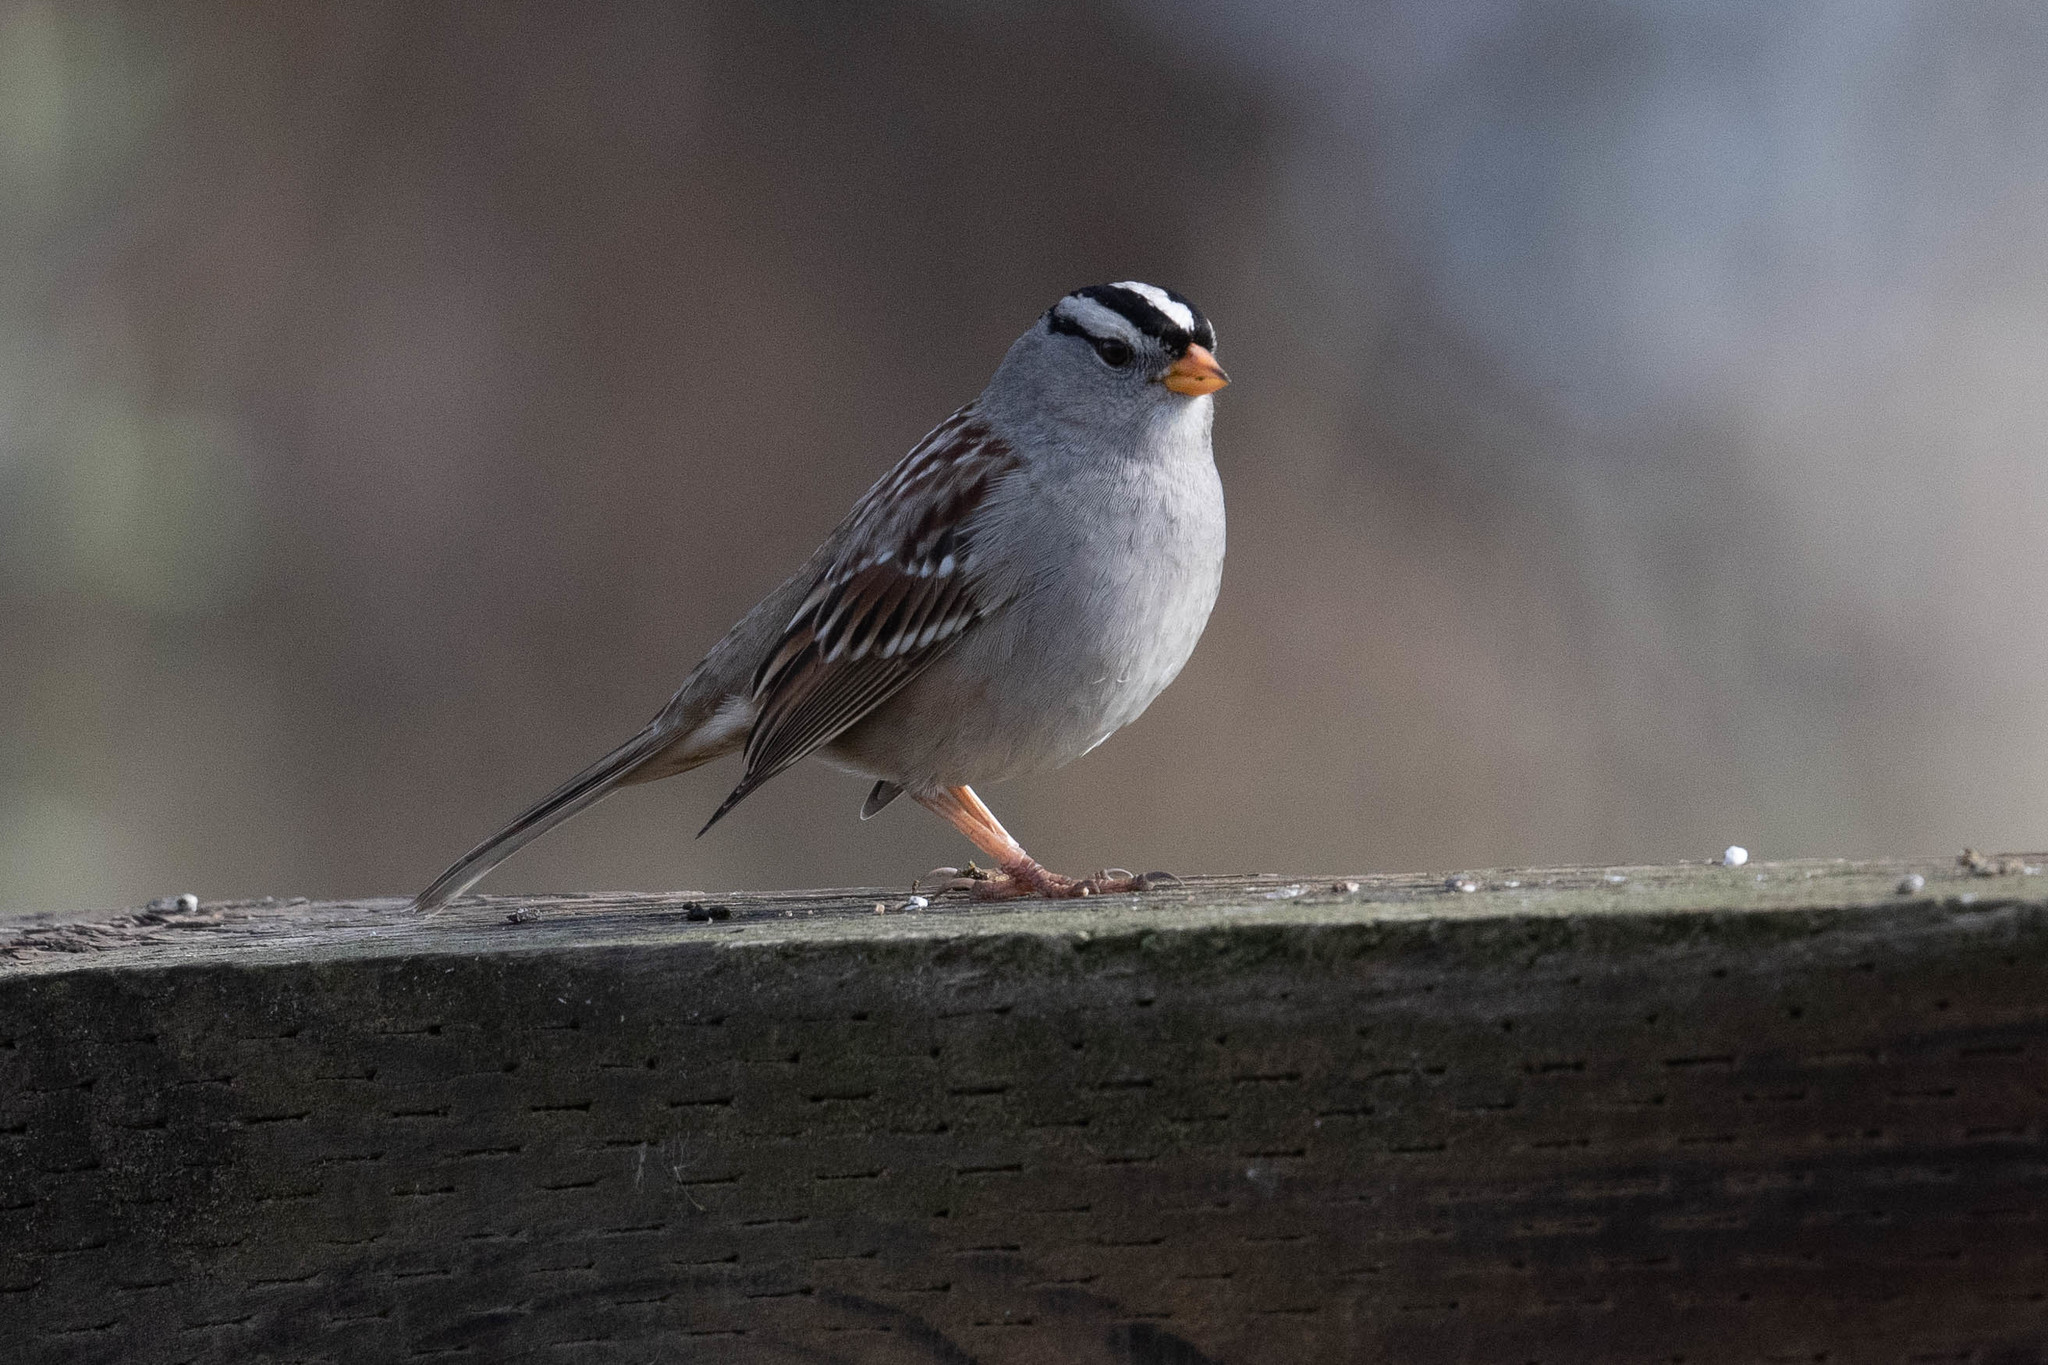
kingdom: Animalia
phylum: Chordata
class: Aves
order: Passeriformes
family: Passerellidae
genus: Zonotrichia
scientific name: Zonotrichia leucophrys
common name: White-crowned sparrow
